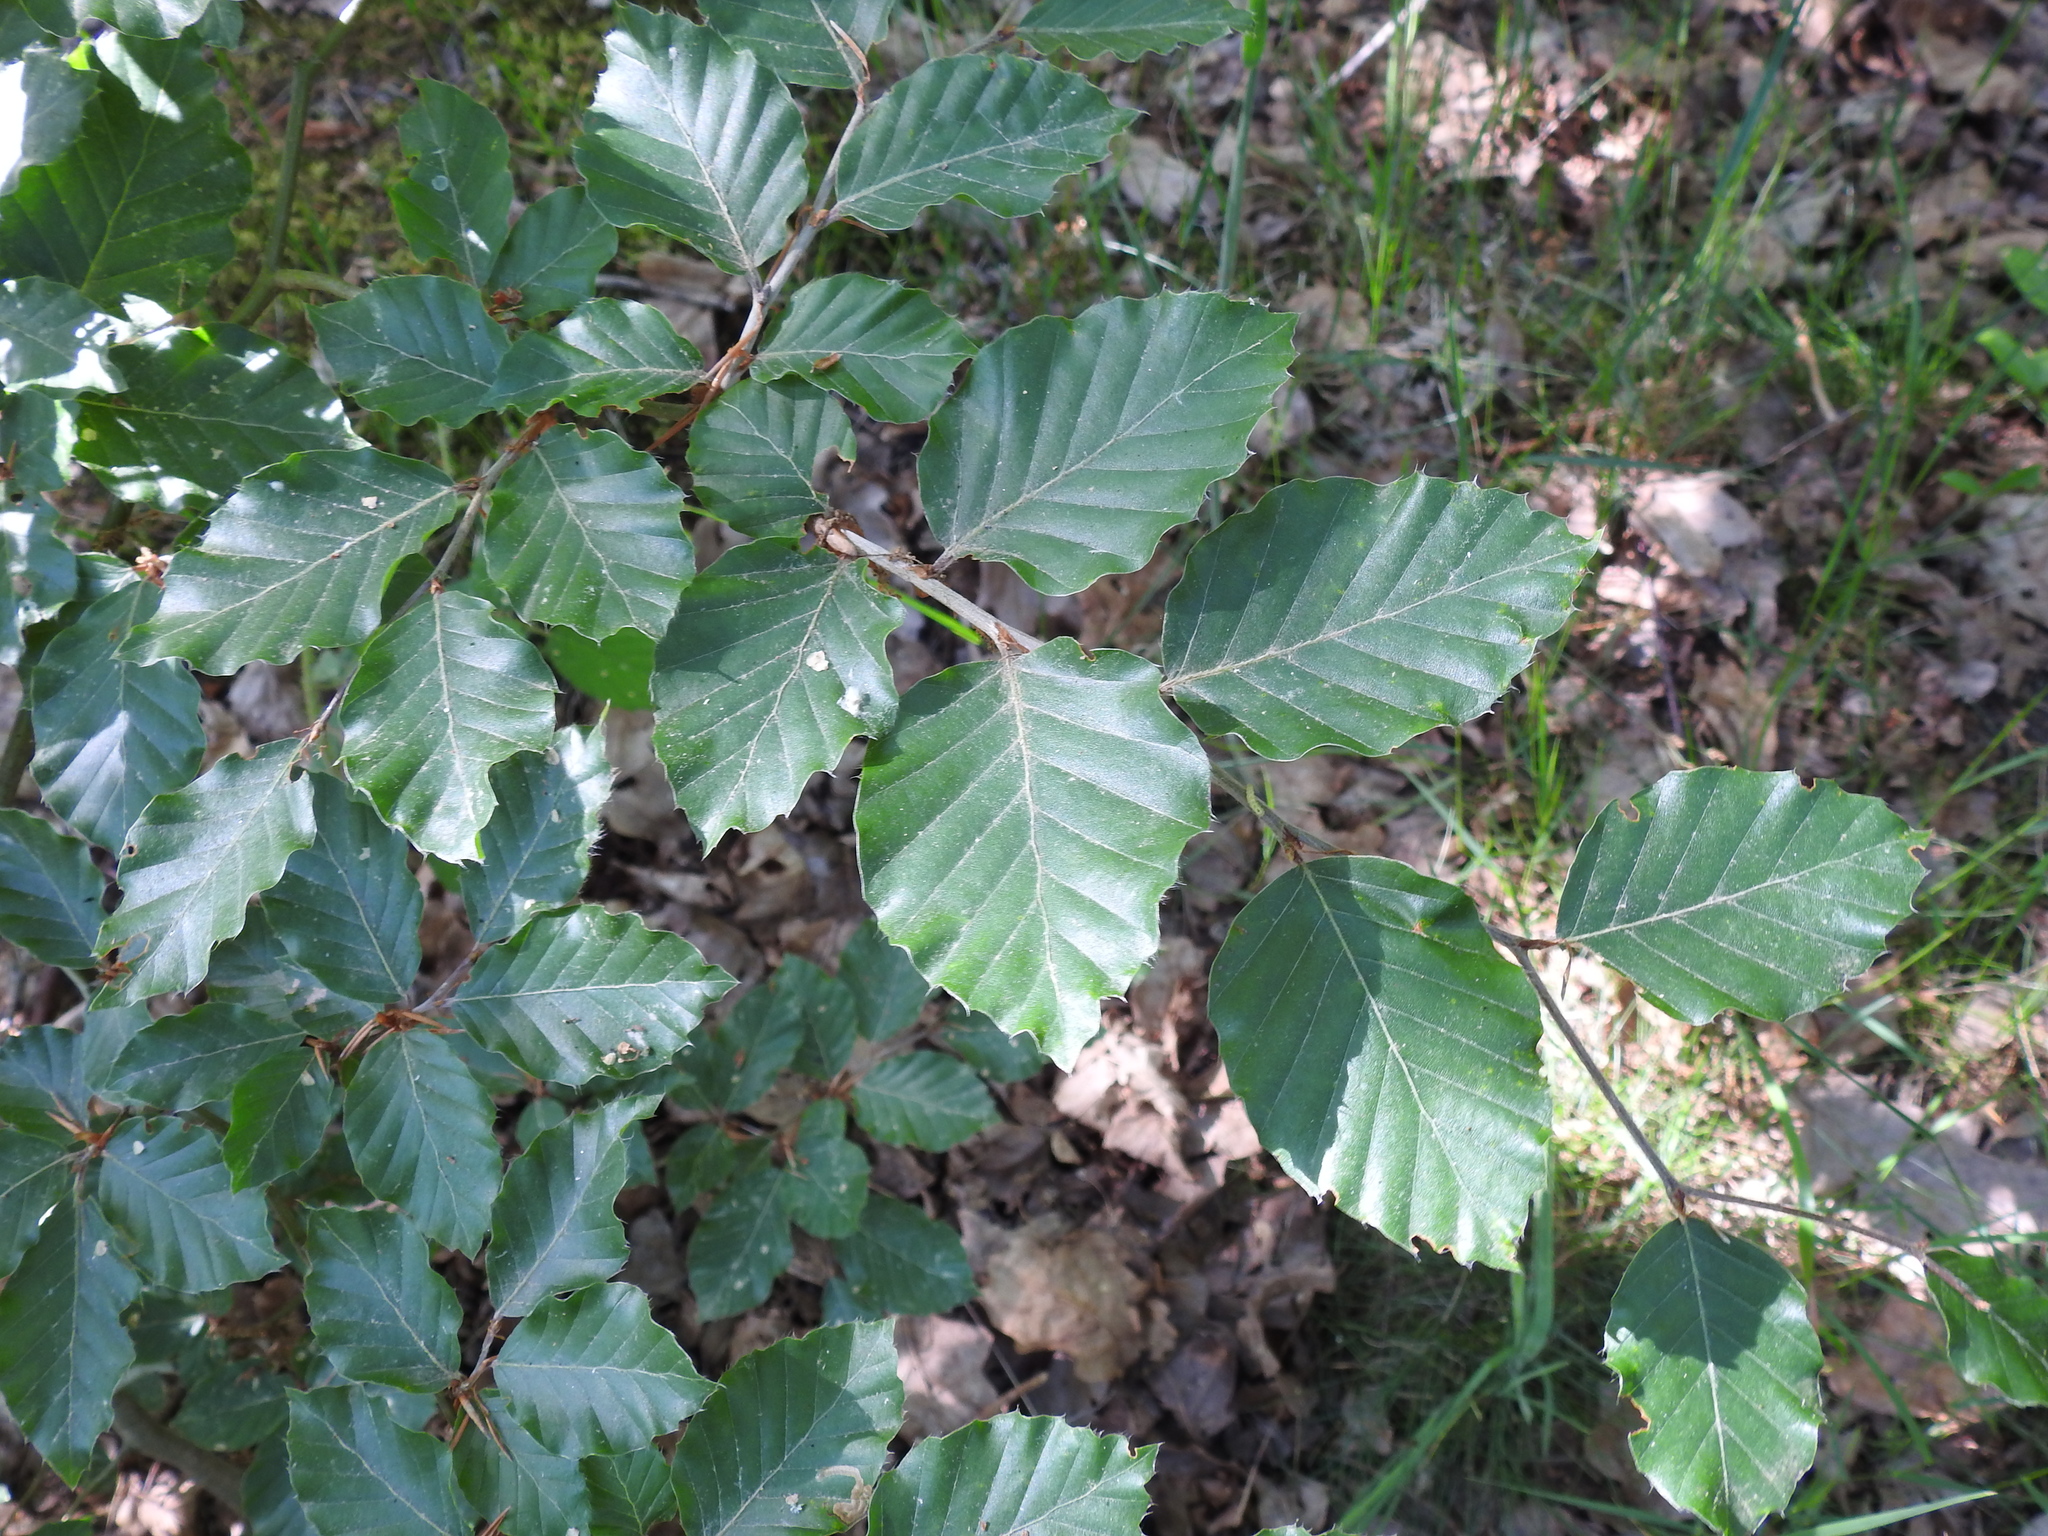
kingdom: Plantae
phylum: Tracheophyta
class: Magnoliopsida
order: Fagales
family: Fagaceae
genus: Fagus
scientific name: Fagus sylvatica
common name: Beech
